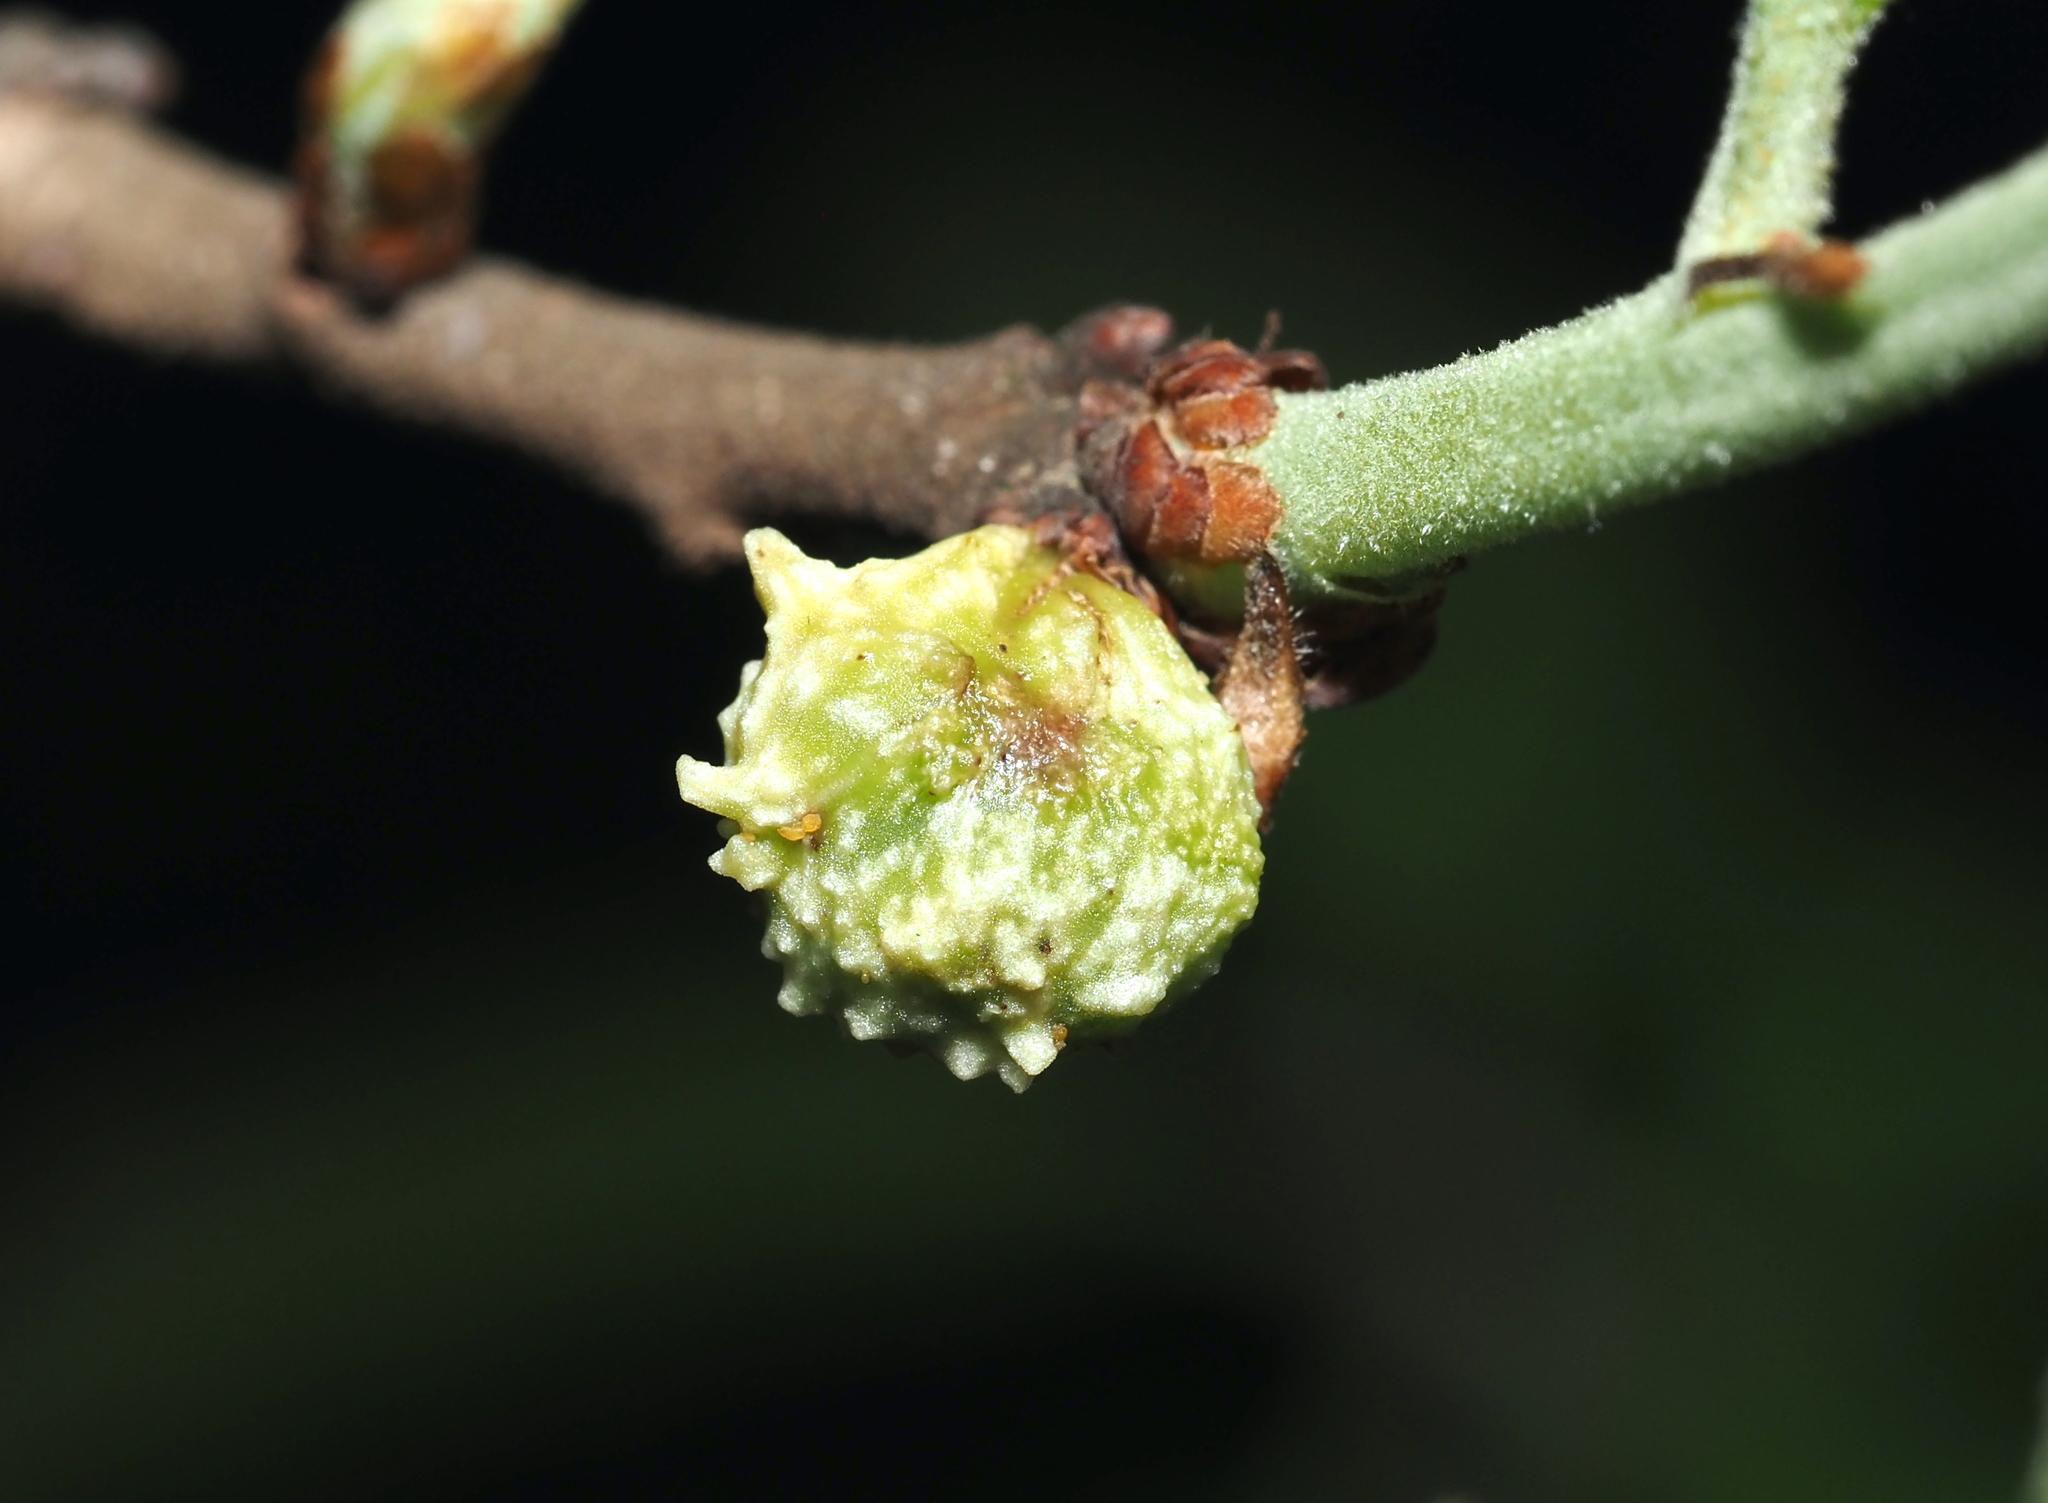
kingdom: Animalia
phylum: Arthropoda
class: Insecta
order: Hymenoptera
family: Cynipidae
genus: Andricus
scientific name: Andricus
